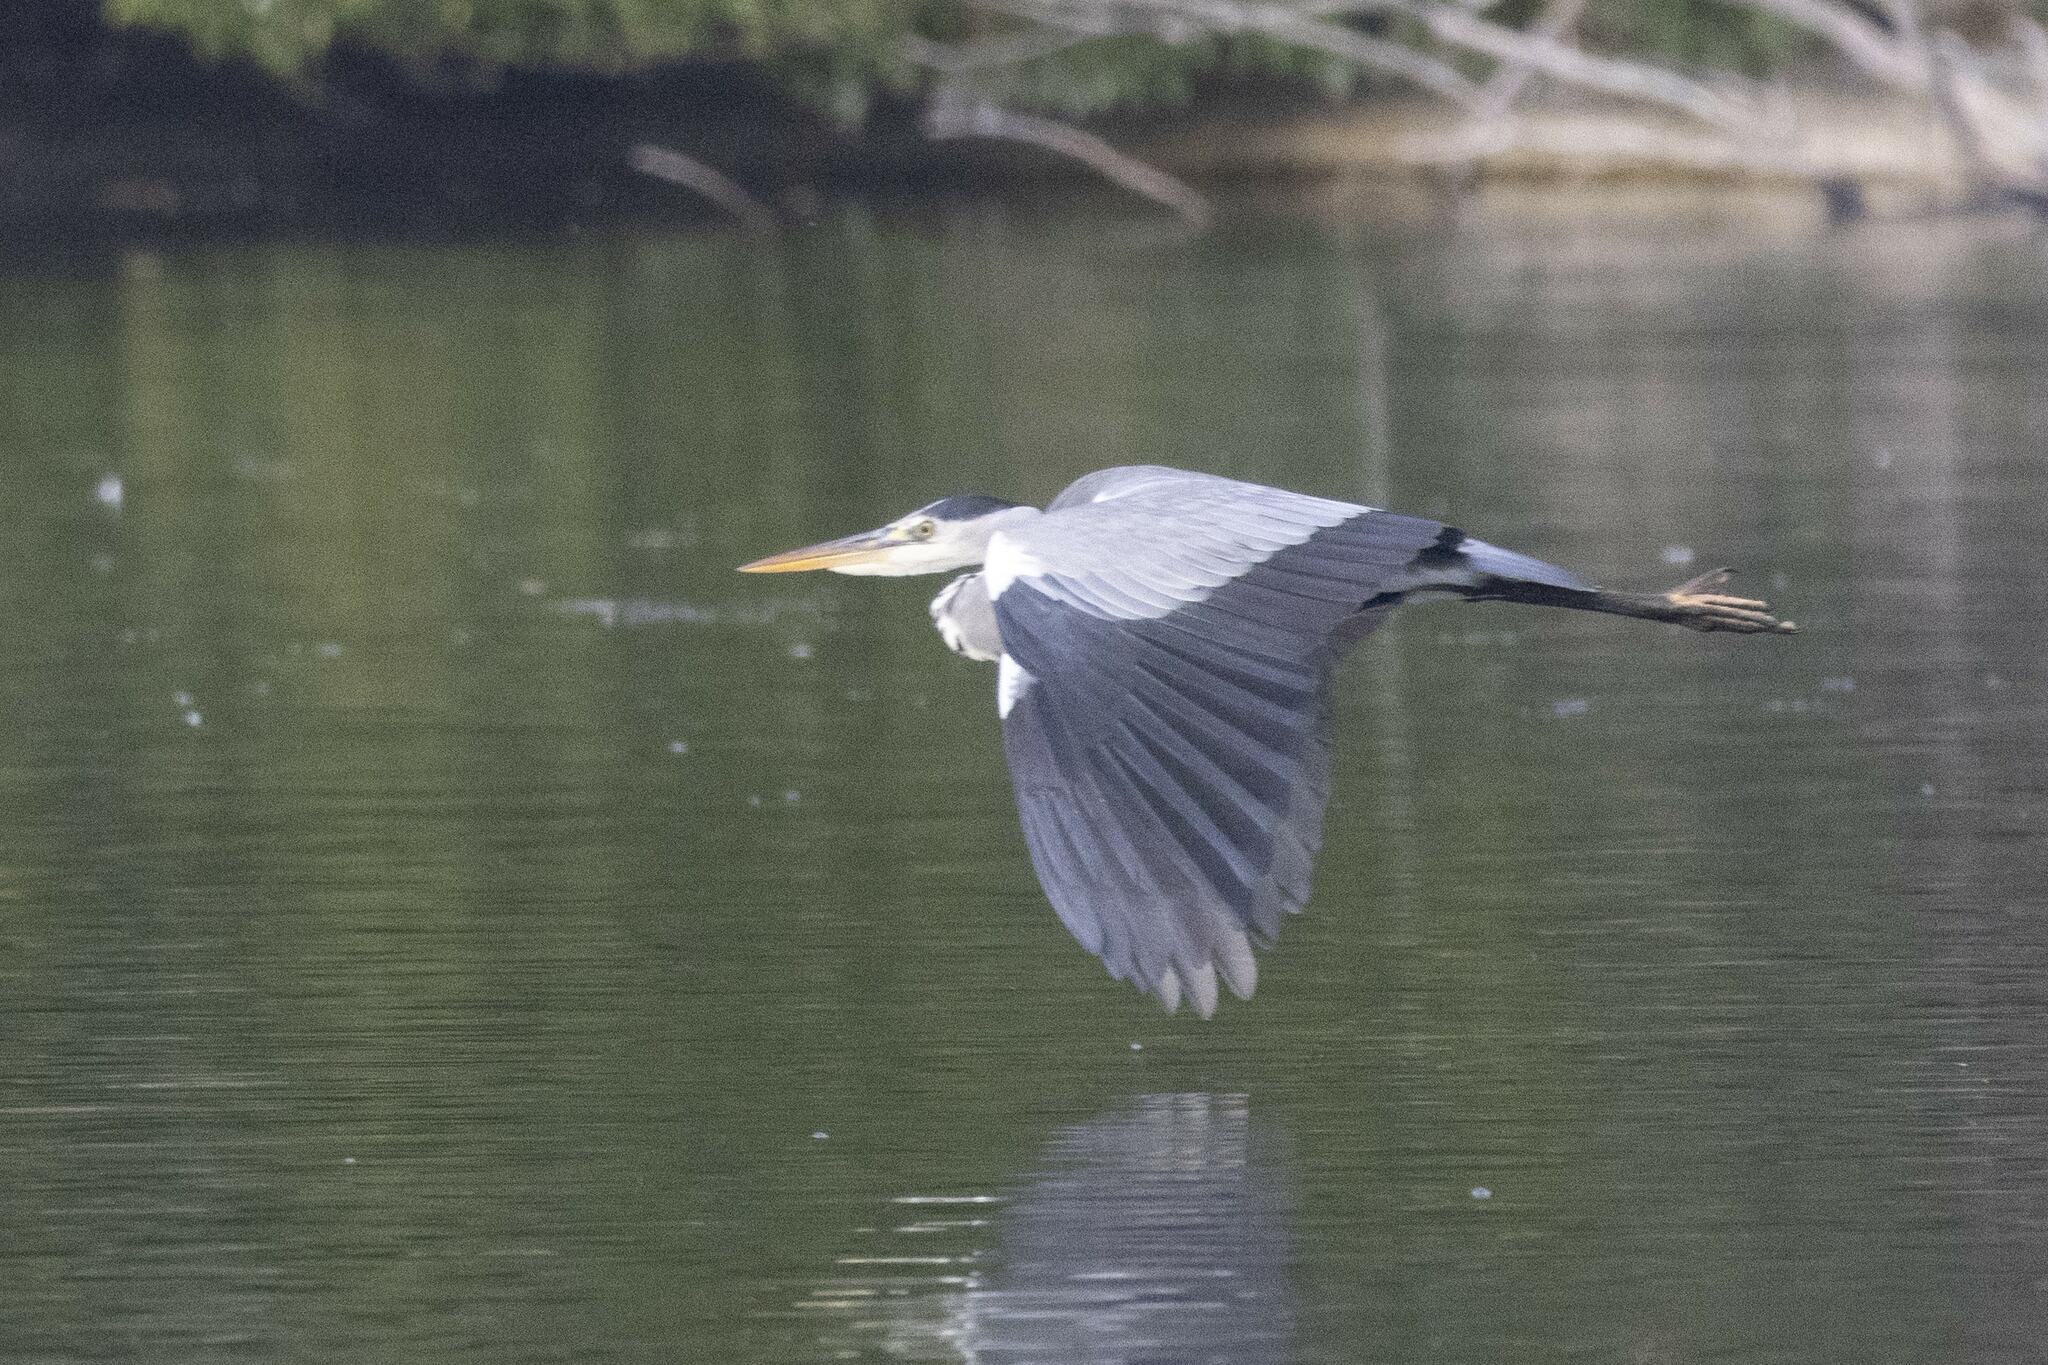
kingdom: Animalia
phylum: Chordata
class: Aves
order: Pelecaniformes
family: Ardeidae
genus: Ardea
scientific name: Ardea cinerea
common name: Grey heron
